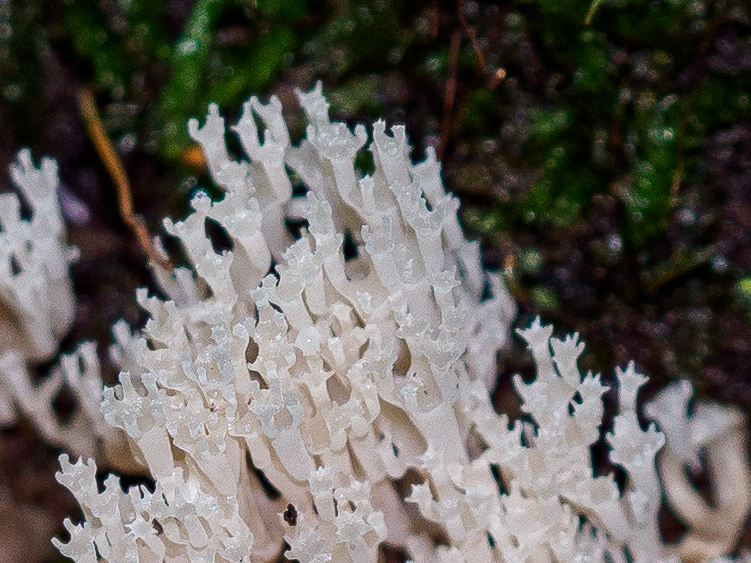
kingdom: Fungi
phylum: Basidiomycota
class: Agaricomycetes
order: Russulales
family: Auriscalpiaceae
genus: Artomyces
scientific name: Artomyces pyxidatus
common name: Crown-tipped coral fungus
